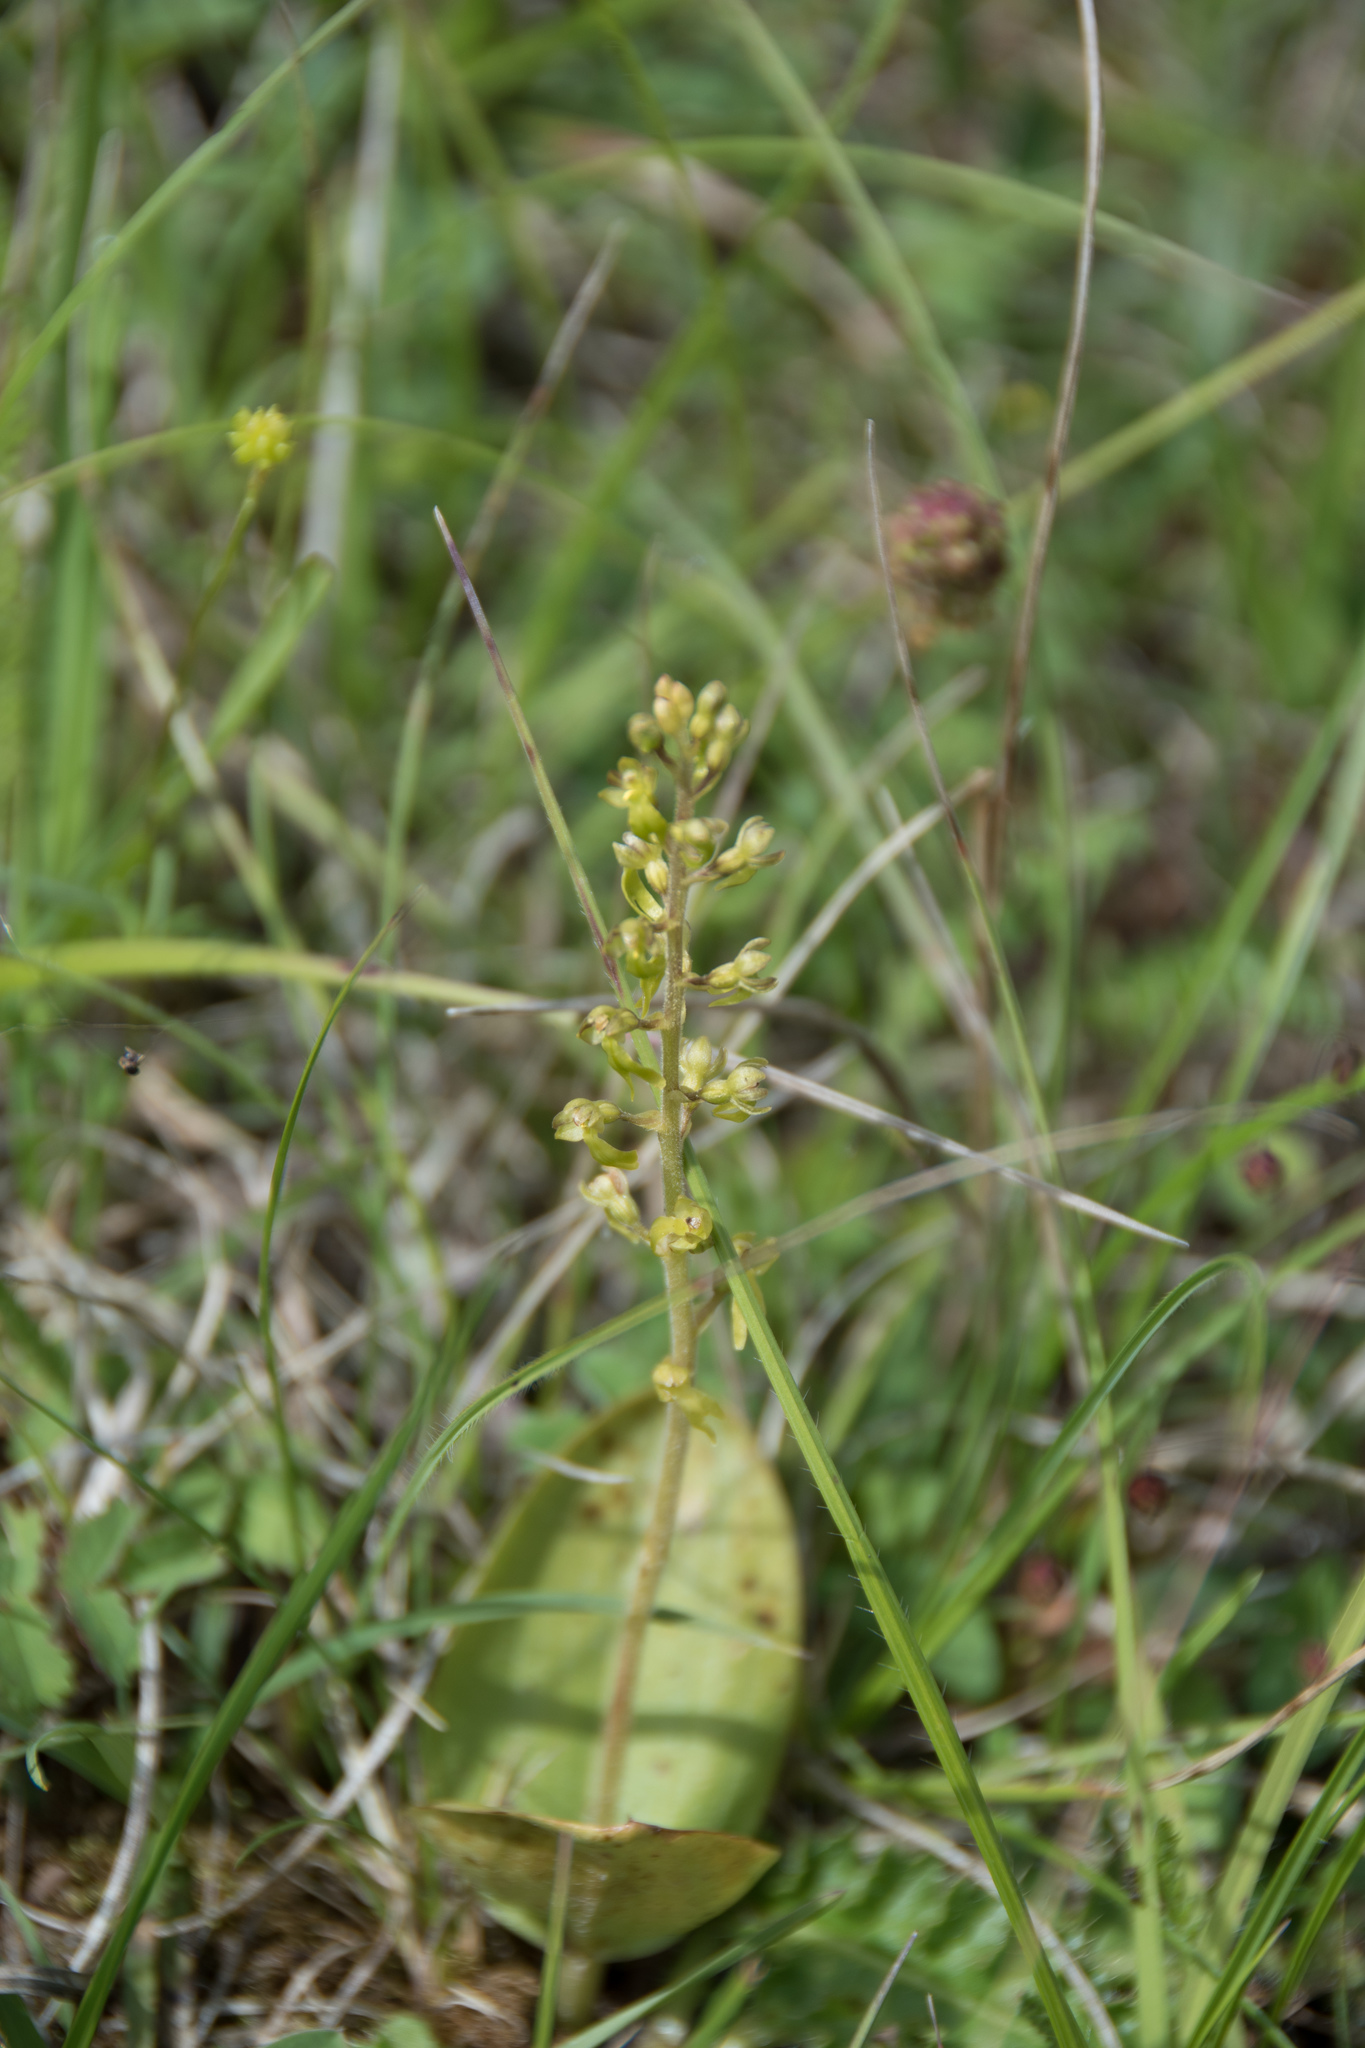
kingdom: Plantae
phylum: Tracheophyta
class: Liliopsida
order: Asparagales
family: Orchidaceae
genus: Neottia
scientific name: Neottia ovata
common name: Common twayblade
